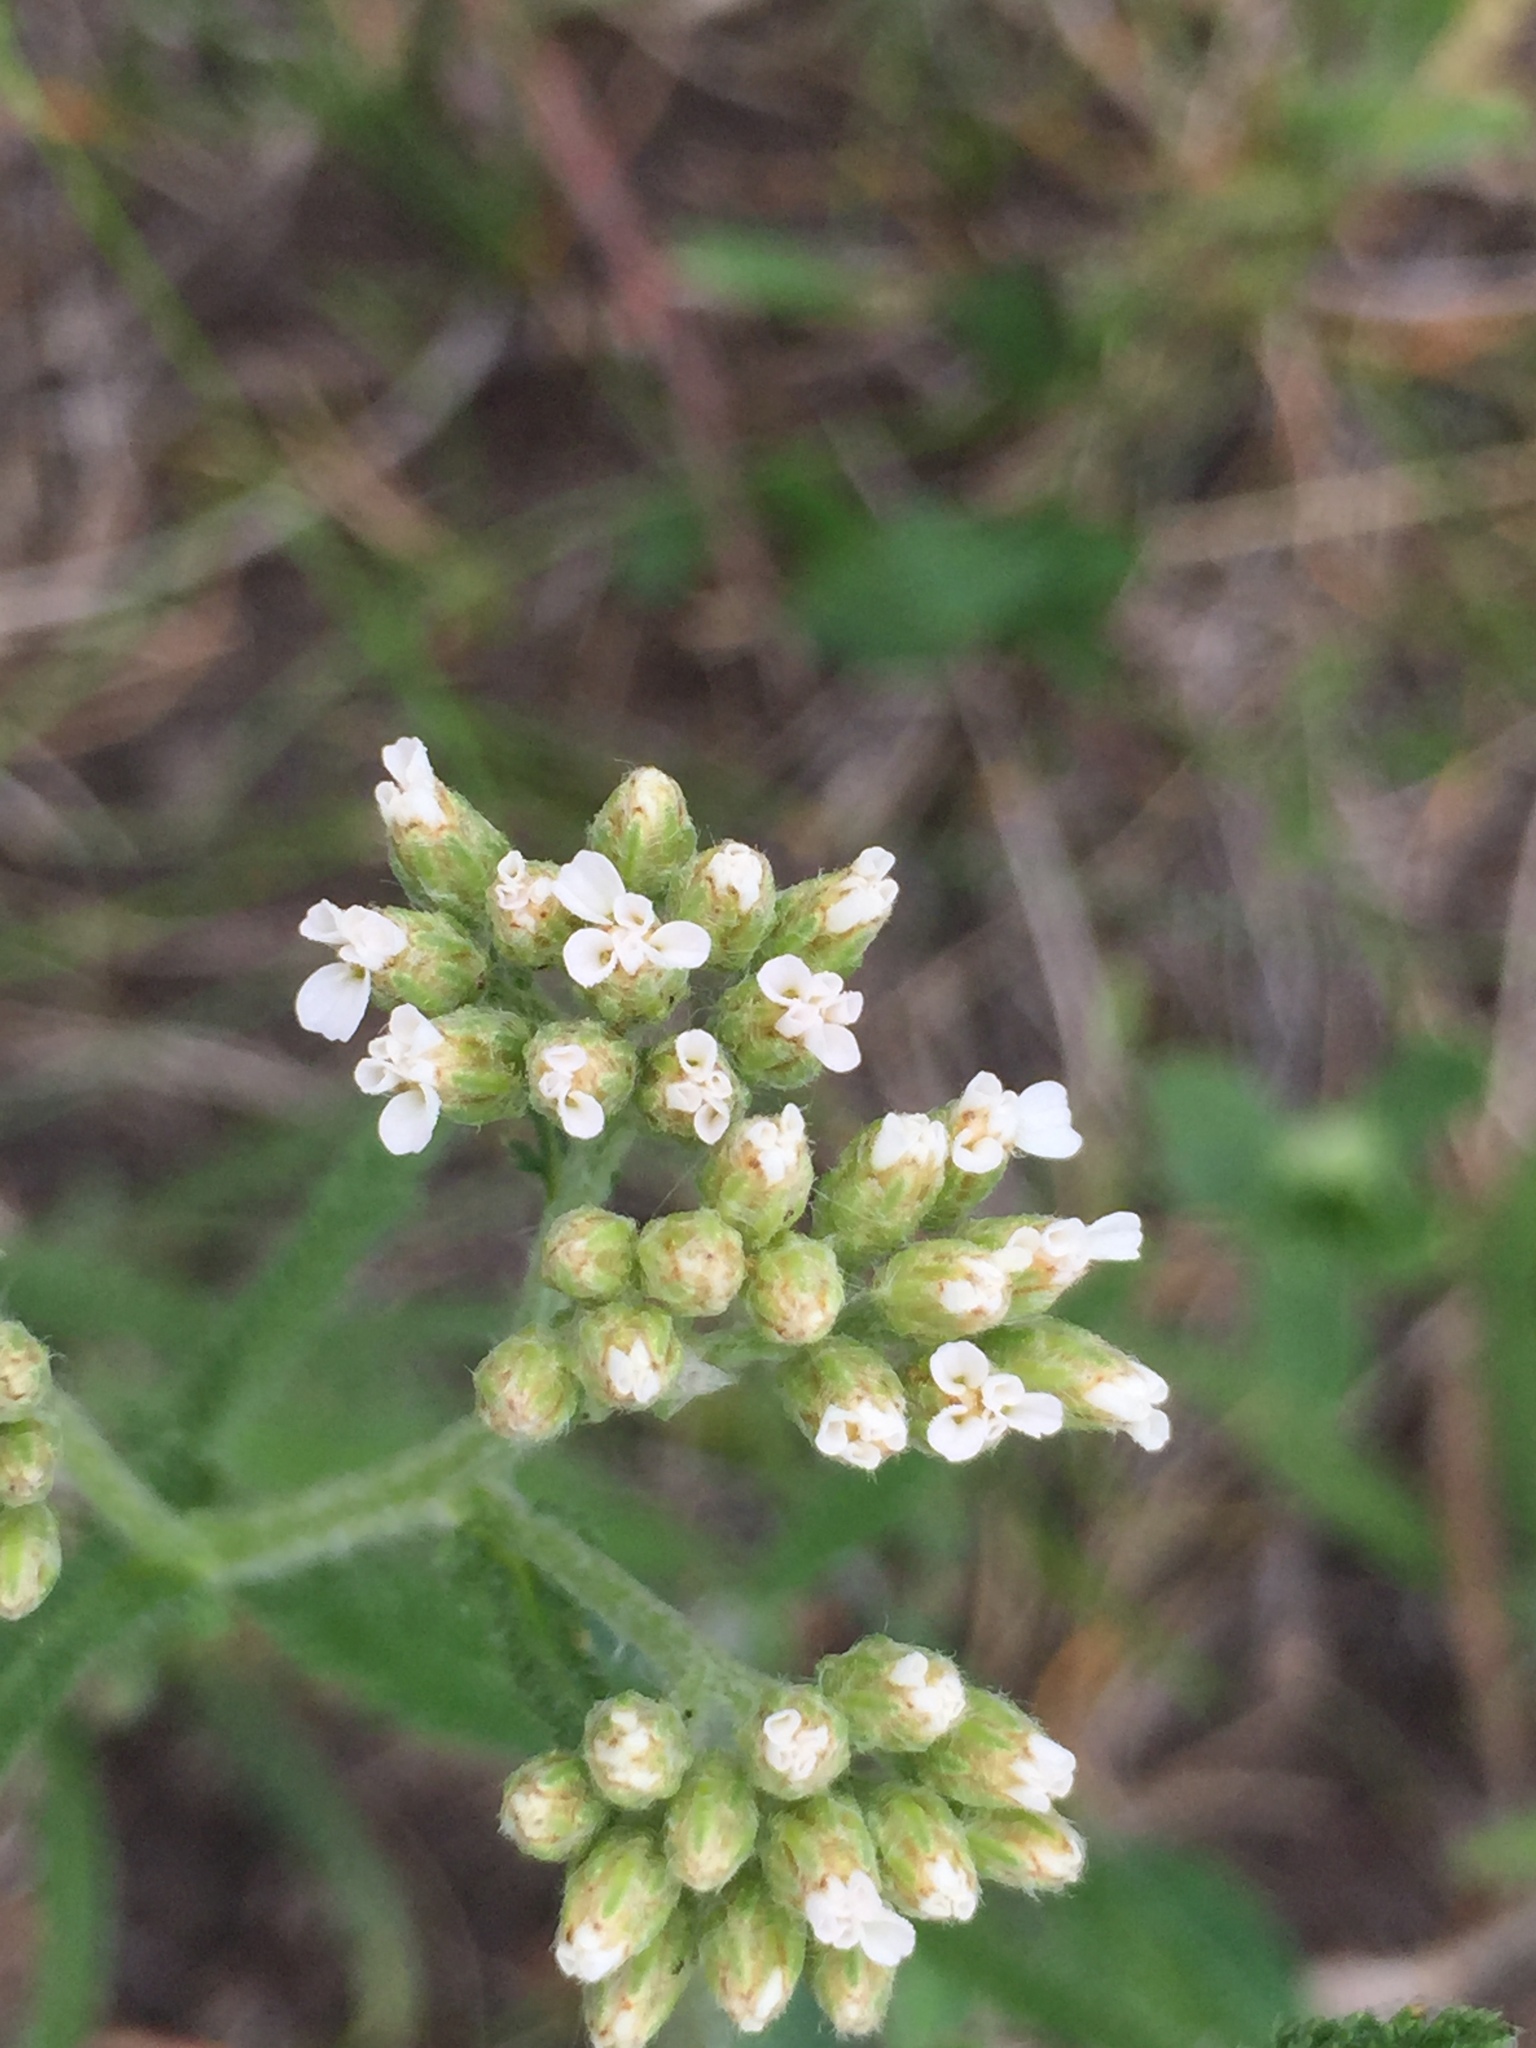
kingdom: Plantae
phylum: Tracheophyta
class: Magnoliopsida
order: Asterales
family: Asteraceae
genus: Achillea
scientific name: Achillea millefolium
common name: Yarrow
